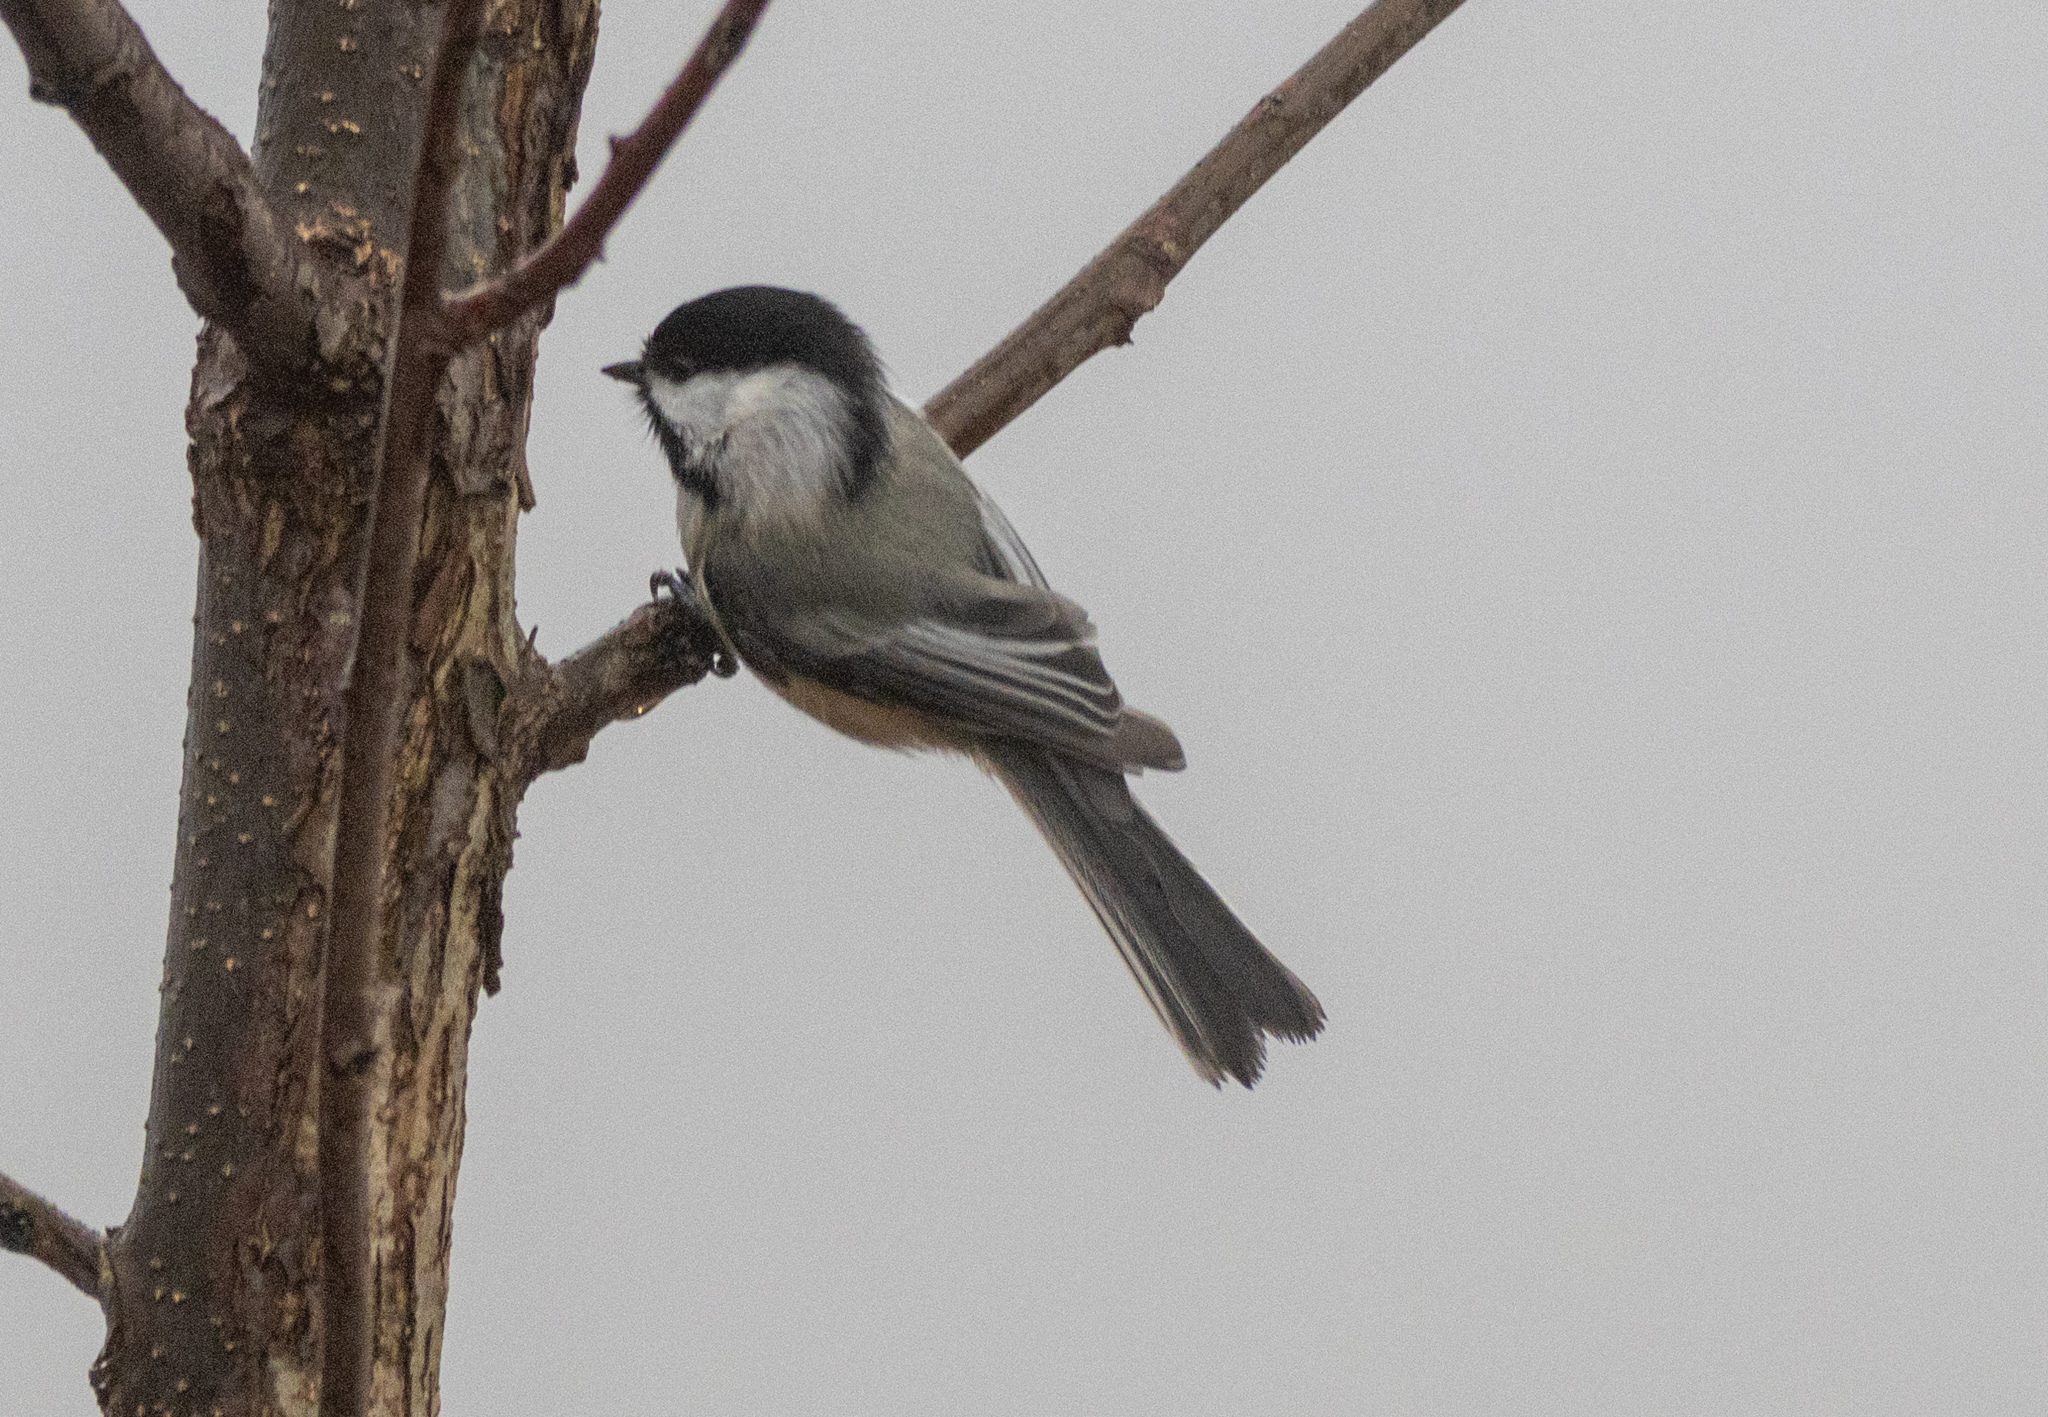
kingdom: Animalia
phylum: Chordata
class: Aves
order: Passeriformes
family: Paridae
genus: Poecile
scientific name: Poecile atricapillus
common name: Black-capped chickadee
